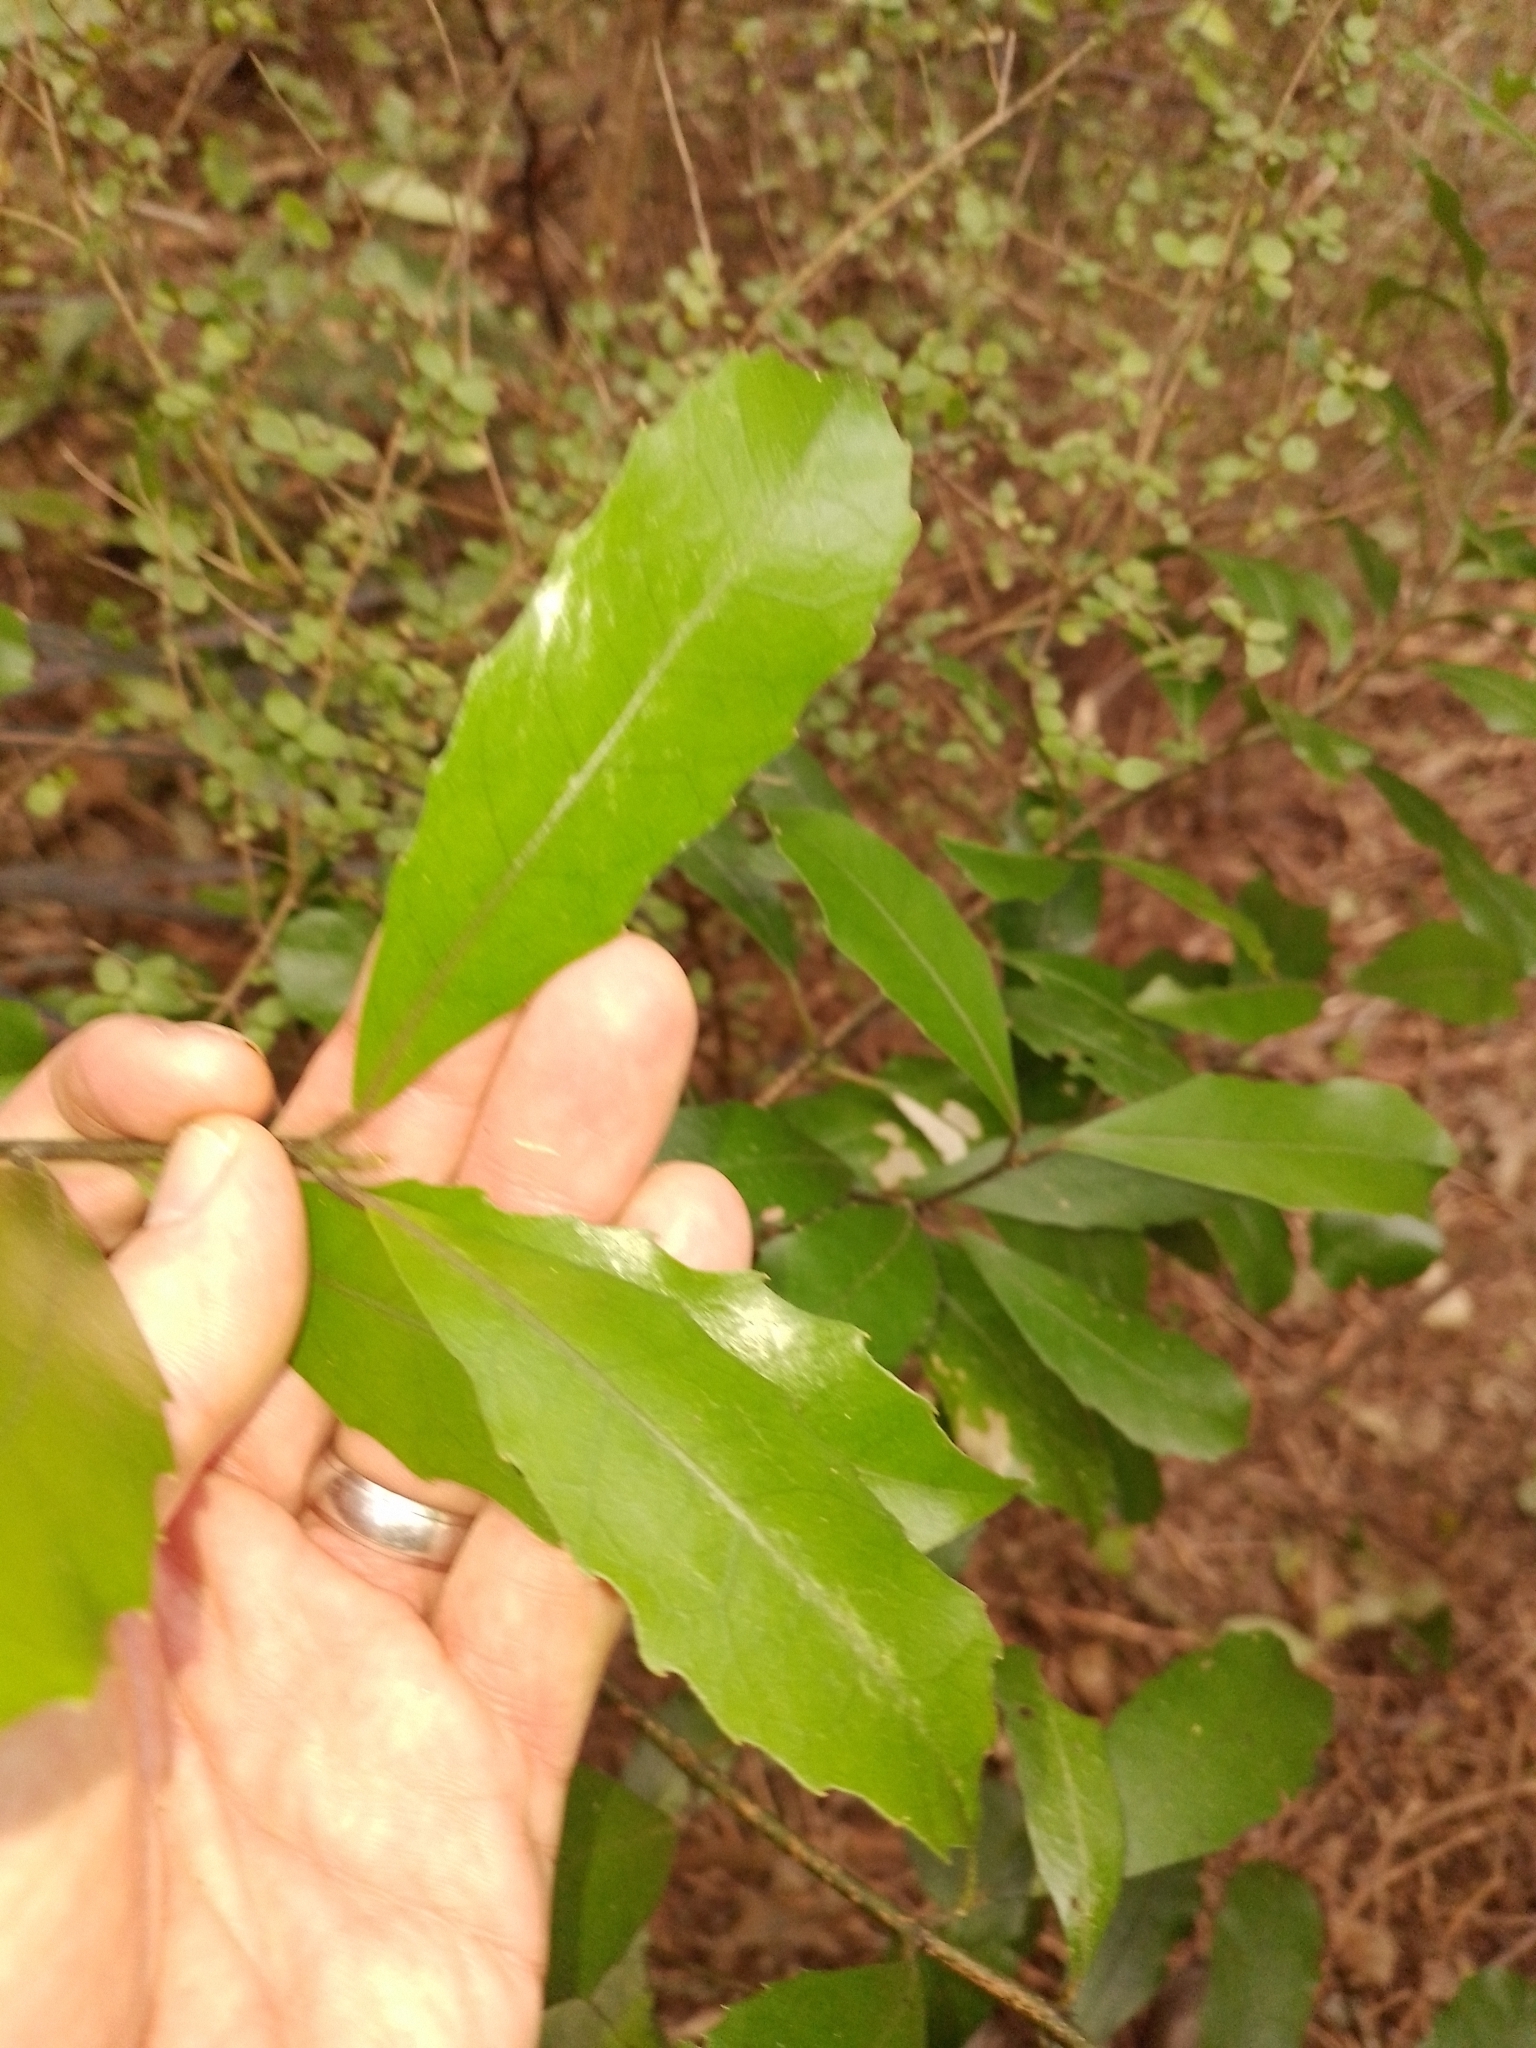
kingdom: Plantae
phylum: Tracheophyta
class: Magnoliopsida
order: Laurales
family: Monimiaceae
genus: Hedycarya
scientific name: Hedycarya arborea
